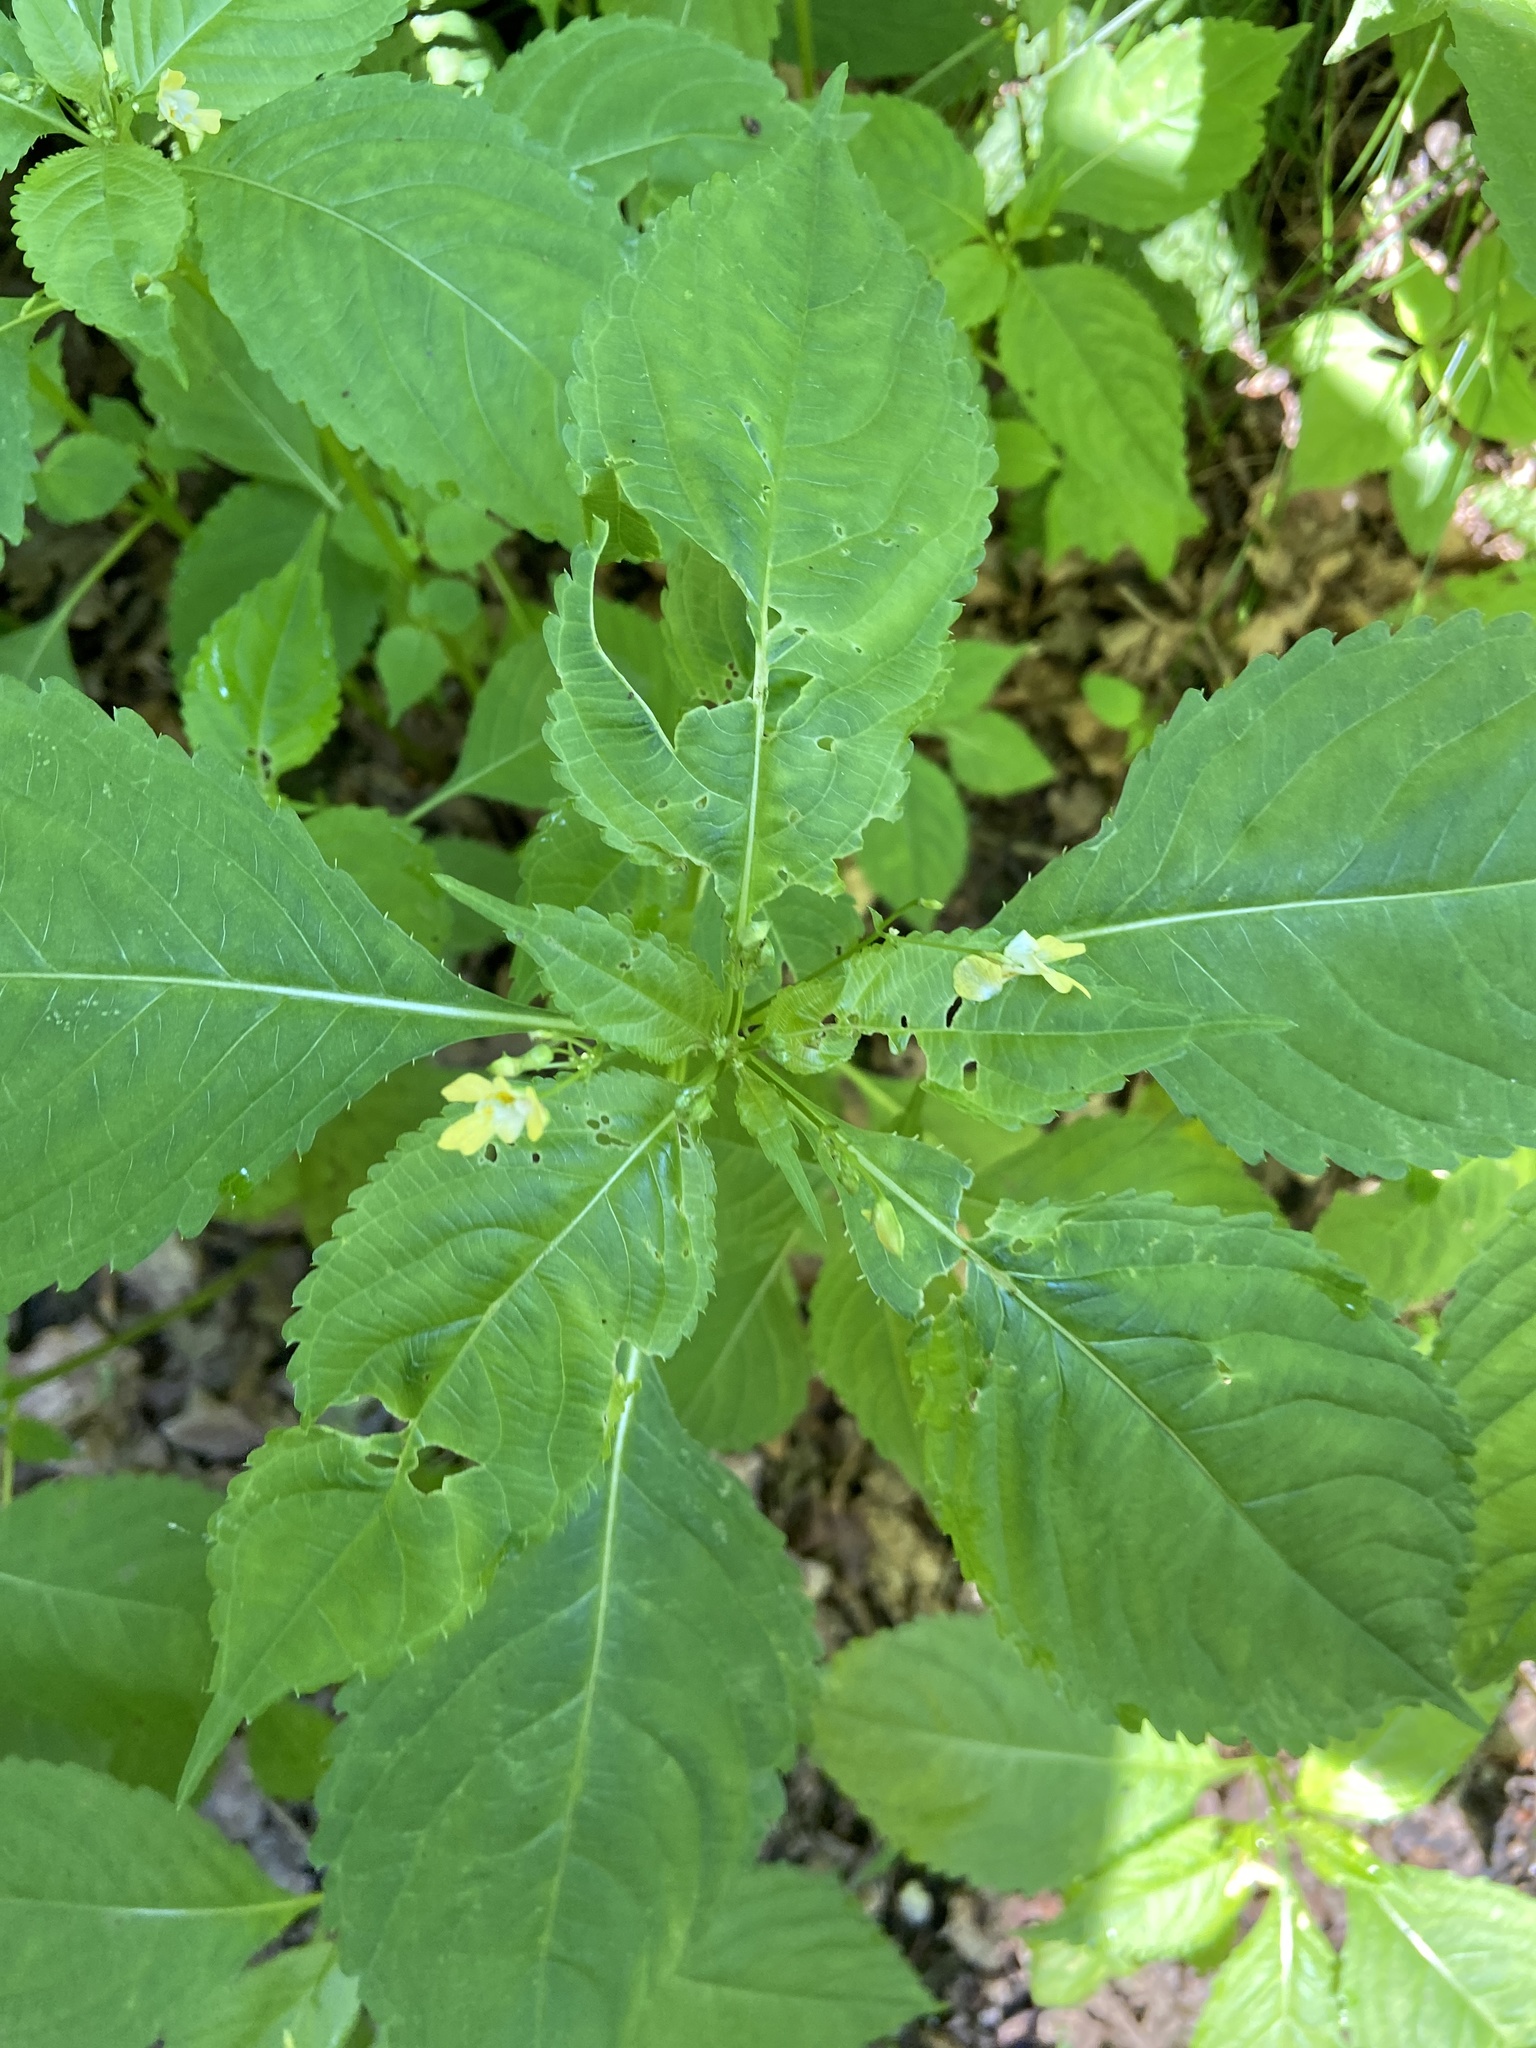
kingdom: Plantae
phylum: Tracheophyta
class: Magnoliopsida
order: Ericales
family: Balsaminaceae
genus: Impatiens
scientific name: Impatiens parviflora
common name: Small balsam
